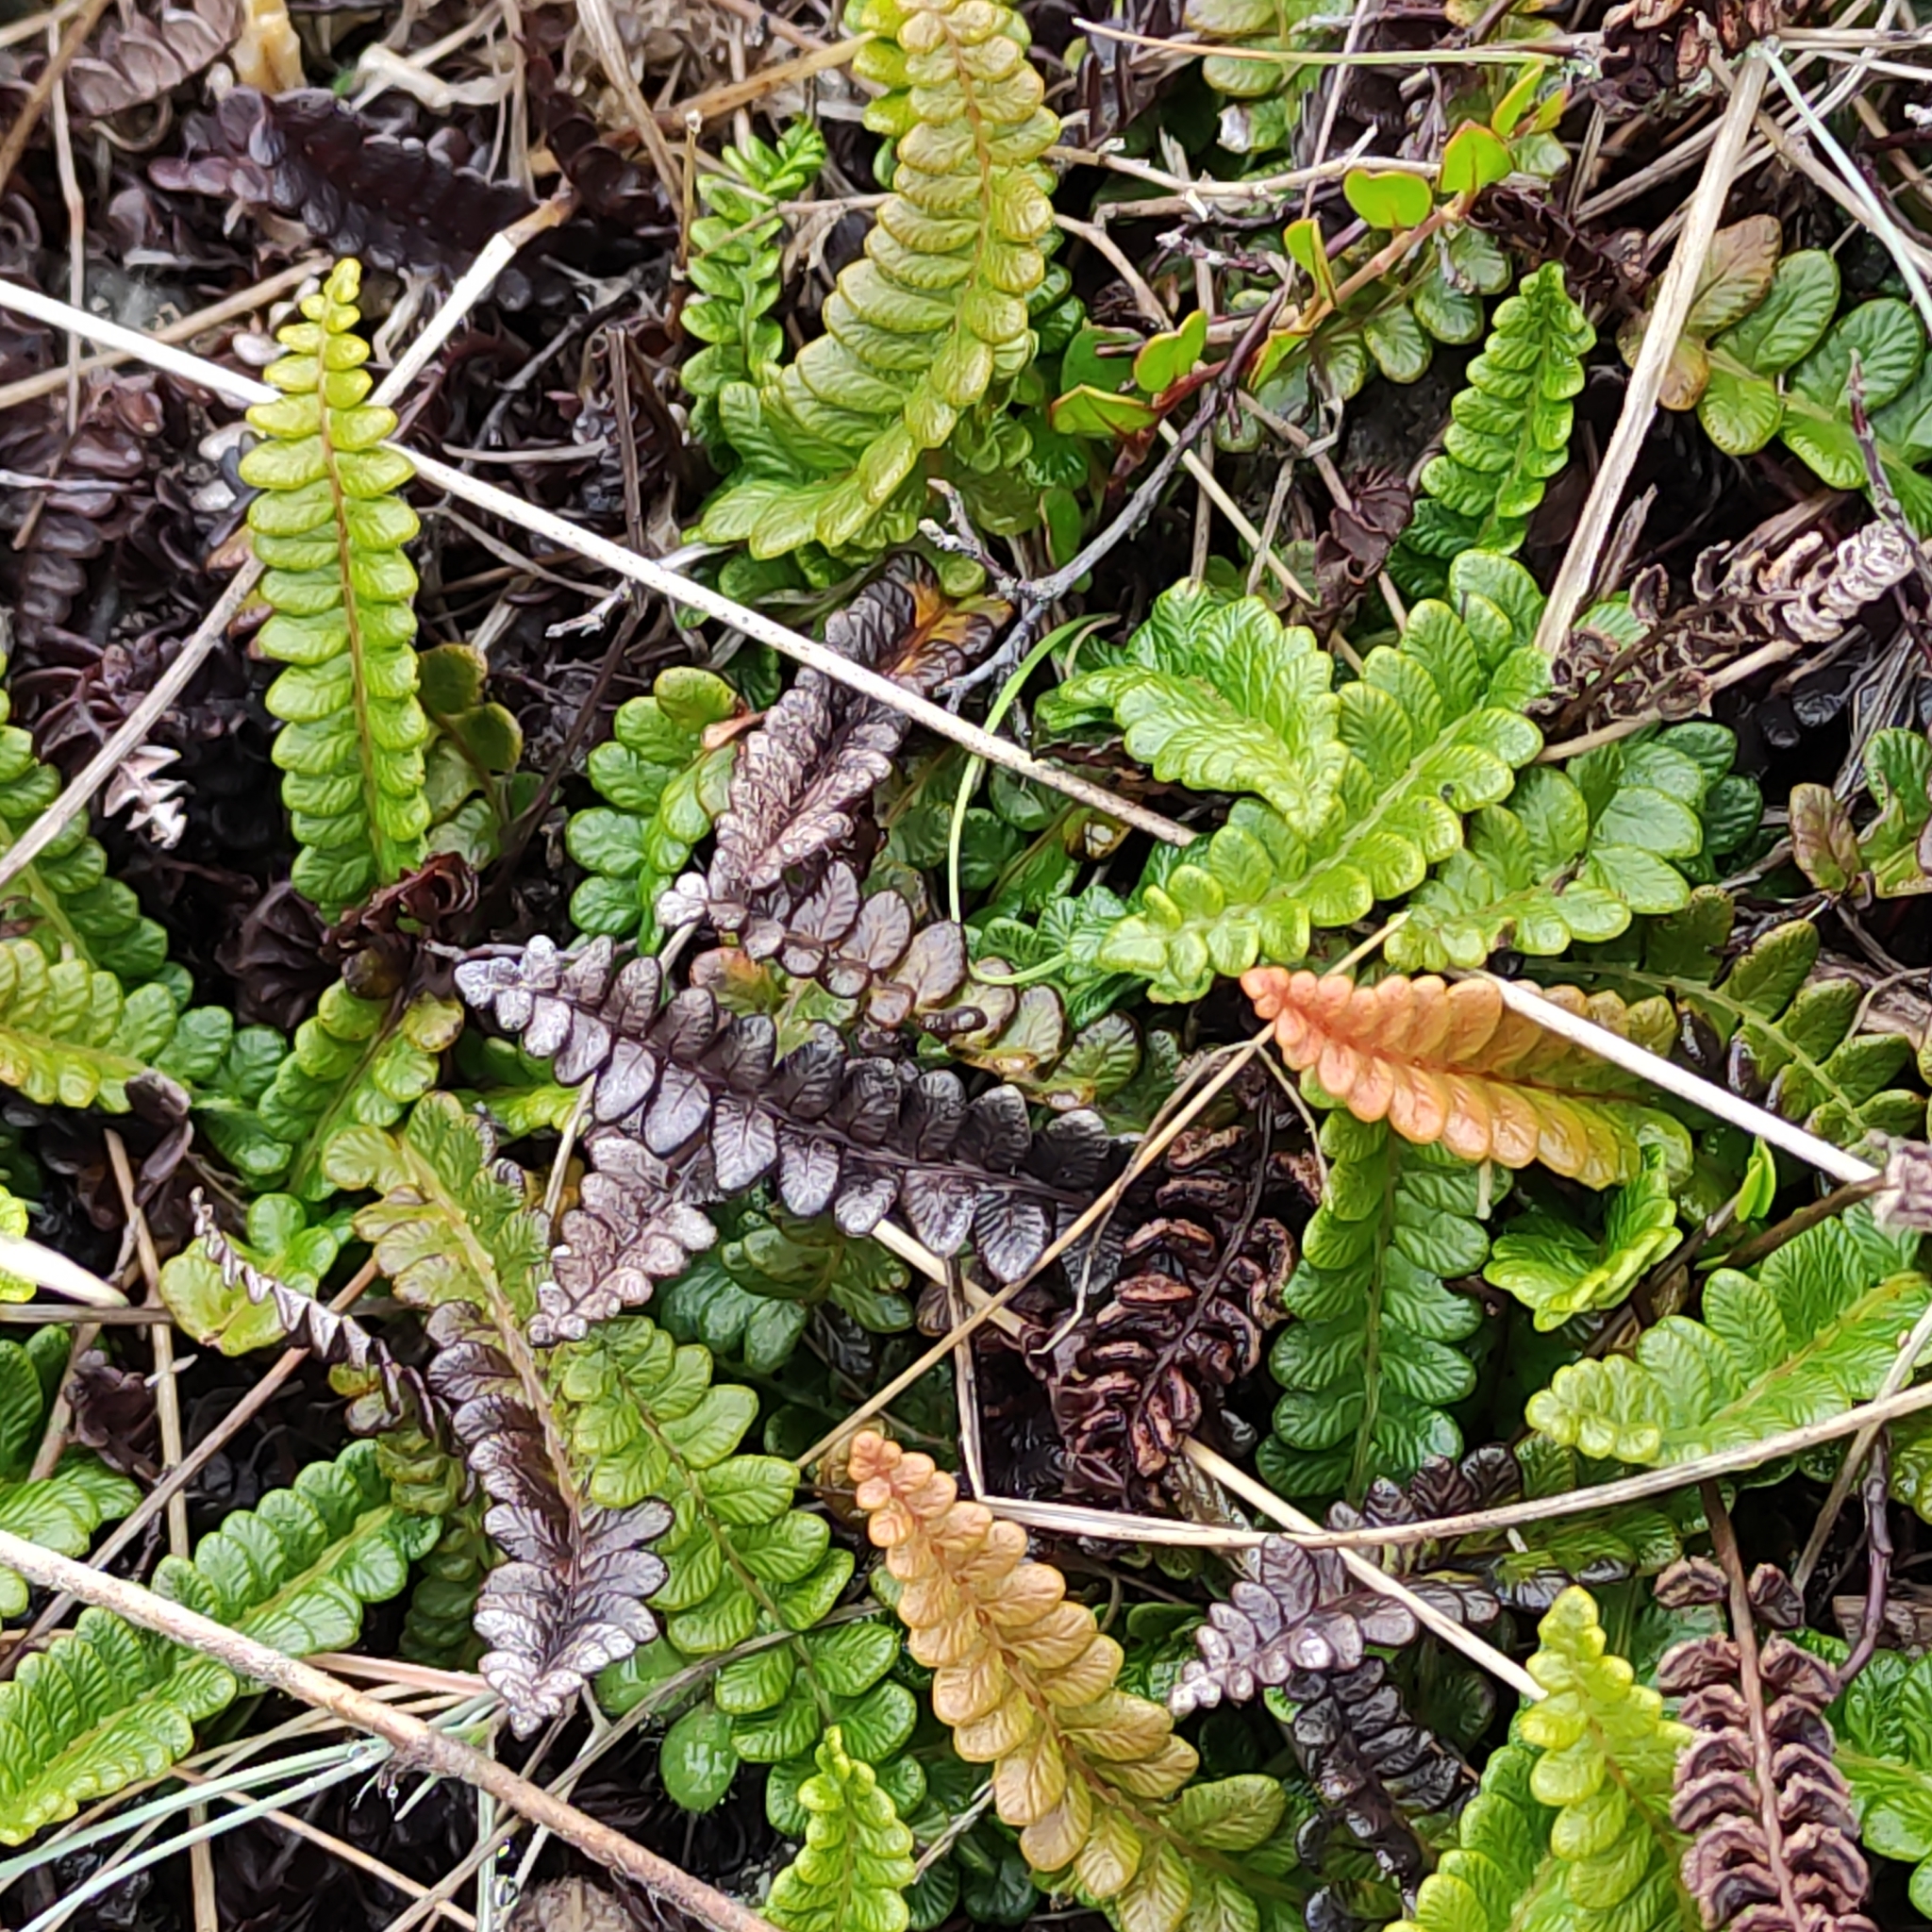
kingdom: Plantae
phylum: Tracheophyta
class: Polypodiopsida
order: Polypodiales
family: Blechnaceae
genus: Austroblechnum
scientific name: Austroblechnum penna-marina
